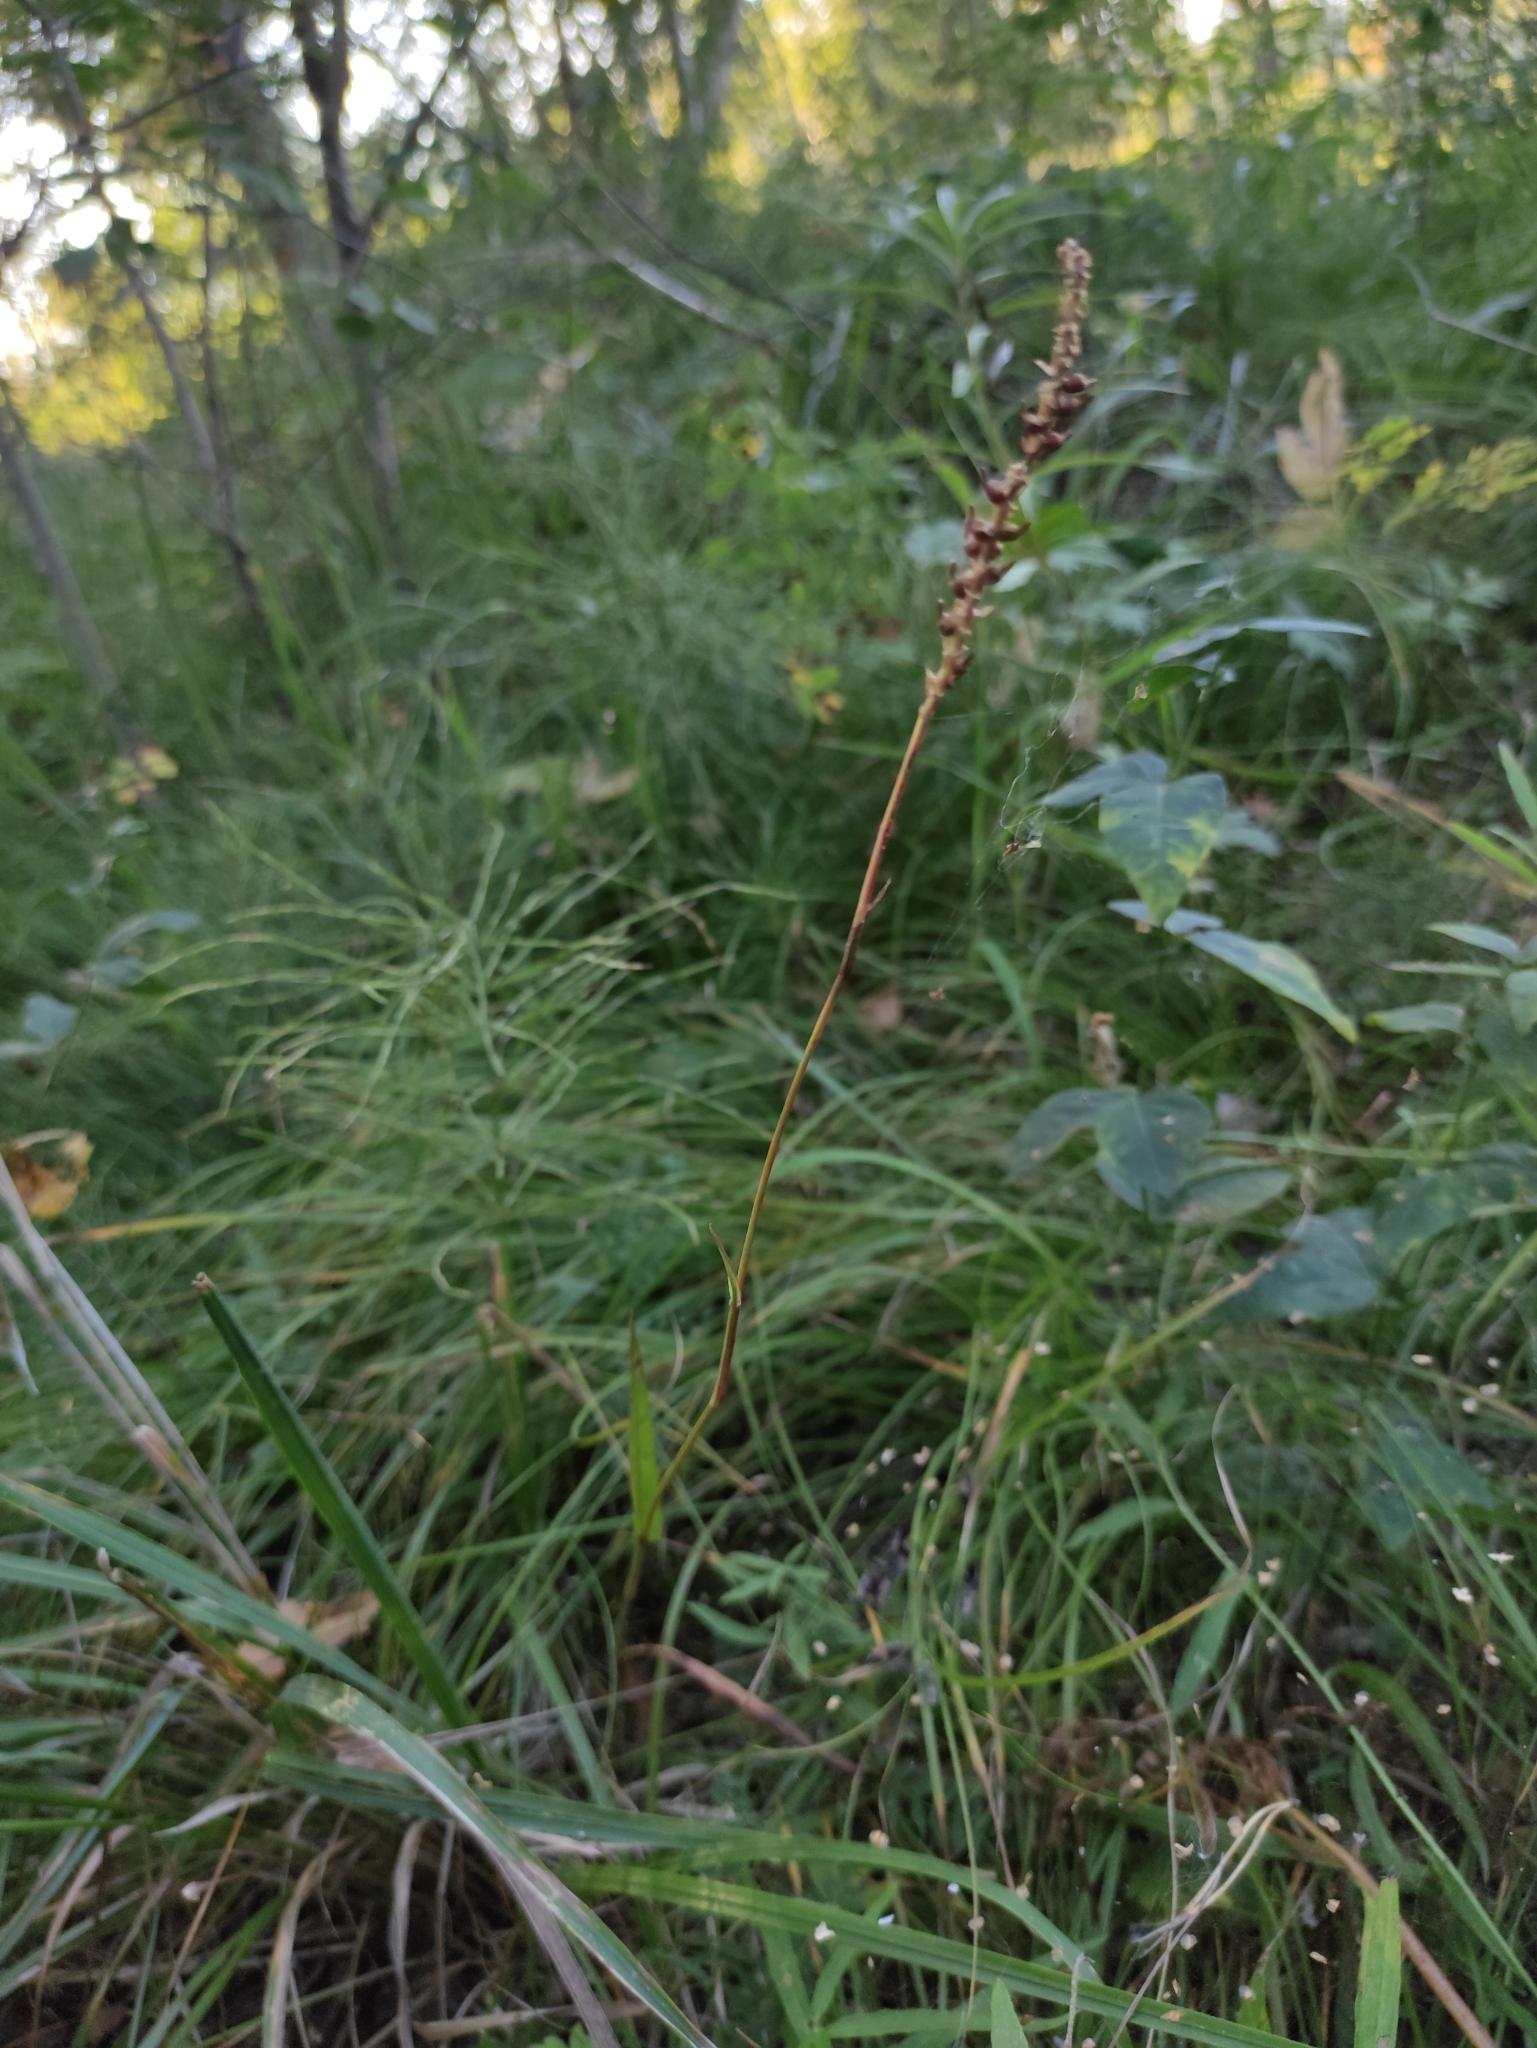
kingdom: Plantae
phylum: Tracheophyta
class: Magnoliopsida
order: Caryophyllales
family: Polygonaceae
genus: Bistorta
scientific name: Bistorta vivipara
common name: Alpine bistort
